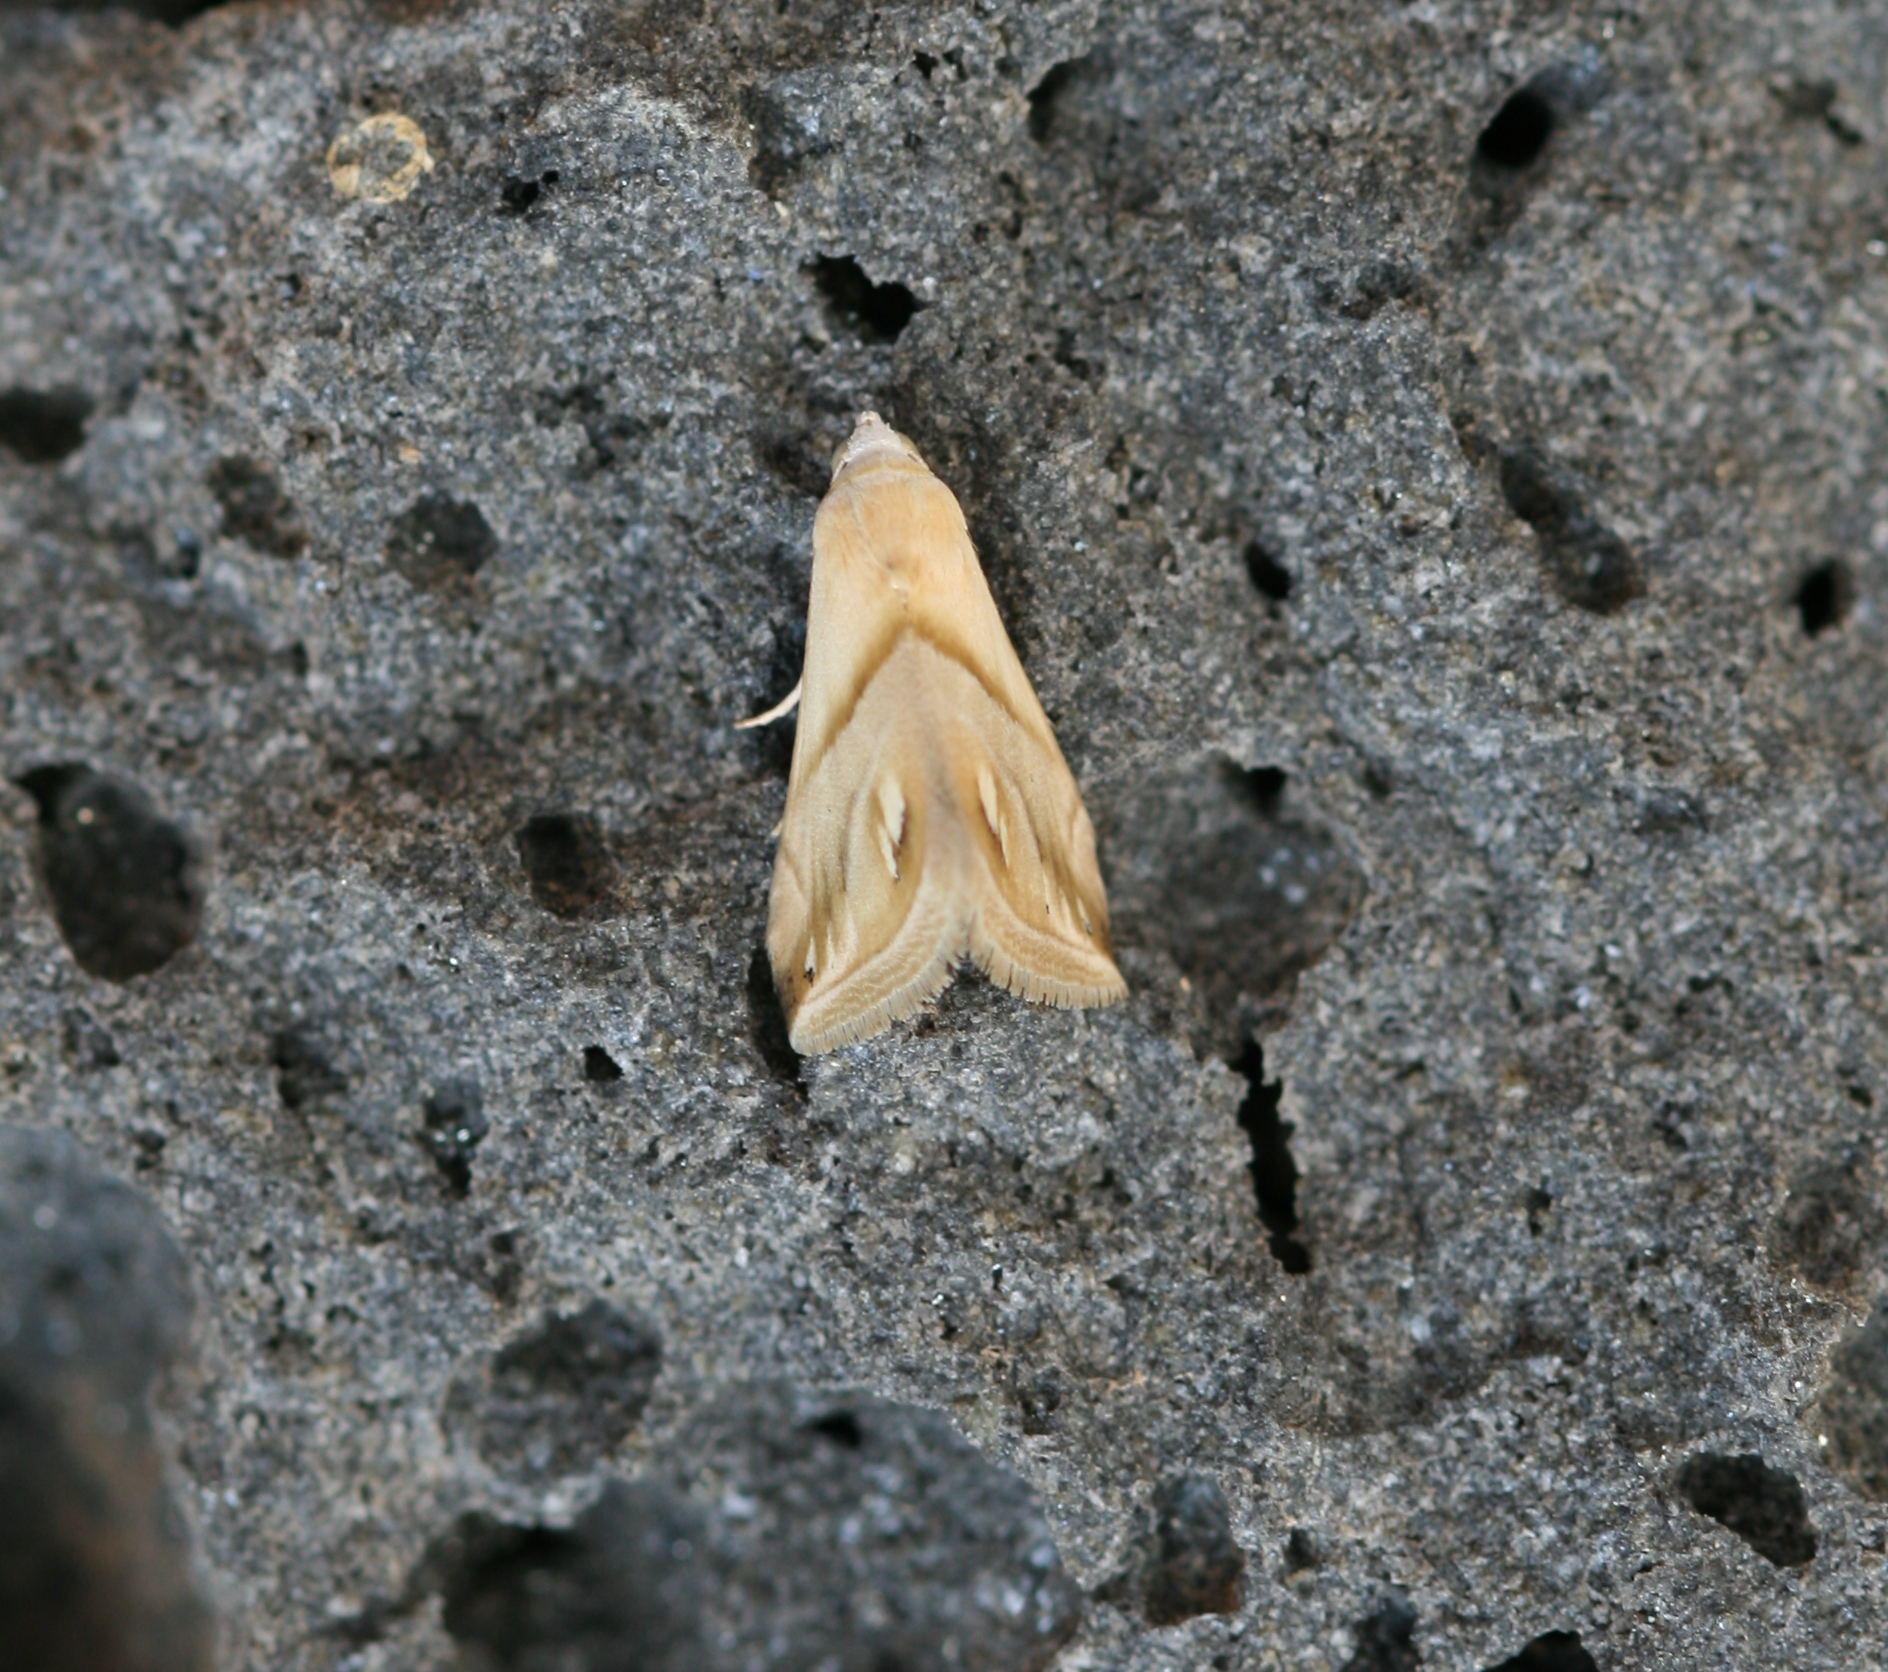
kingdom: Animalia
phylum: Arthropoda
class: Insecta
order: Lepidoptera
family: Noctuidae
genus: Eublemma
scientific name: Eublemma cochylioides
